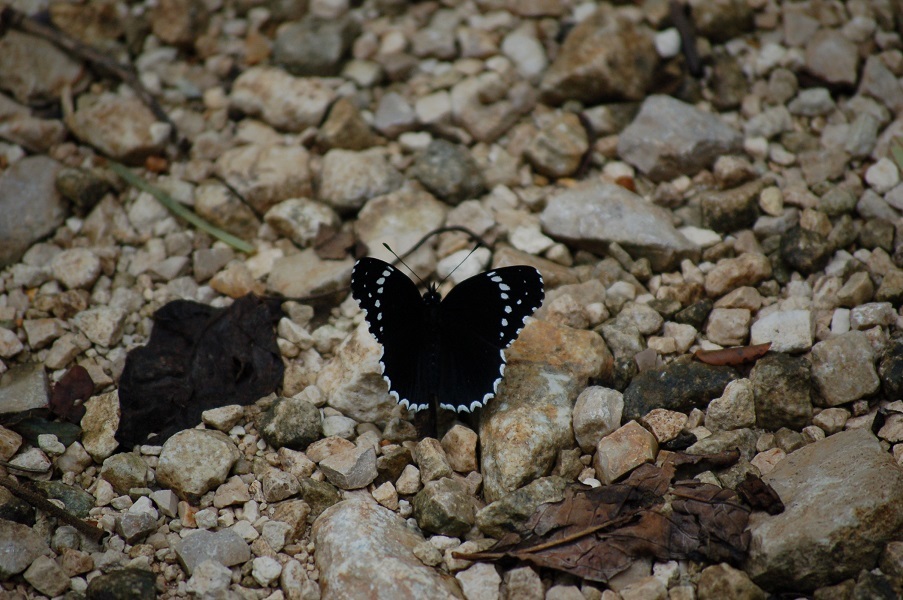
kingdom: Animalia
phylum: Arthropoda
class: Insecta
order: Lepidoptera
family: Nymphalidae
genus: Chlosyne
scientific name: Chlosyne hippodrome
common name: Simple patch
